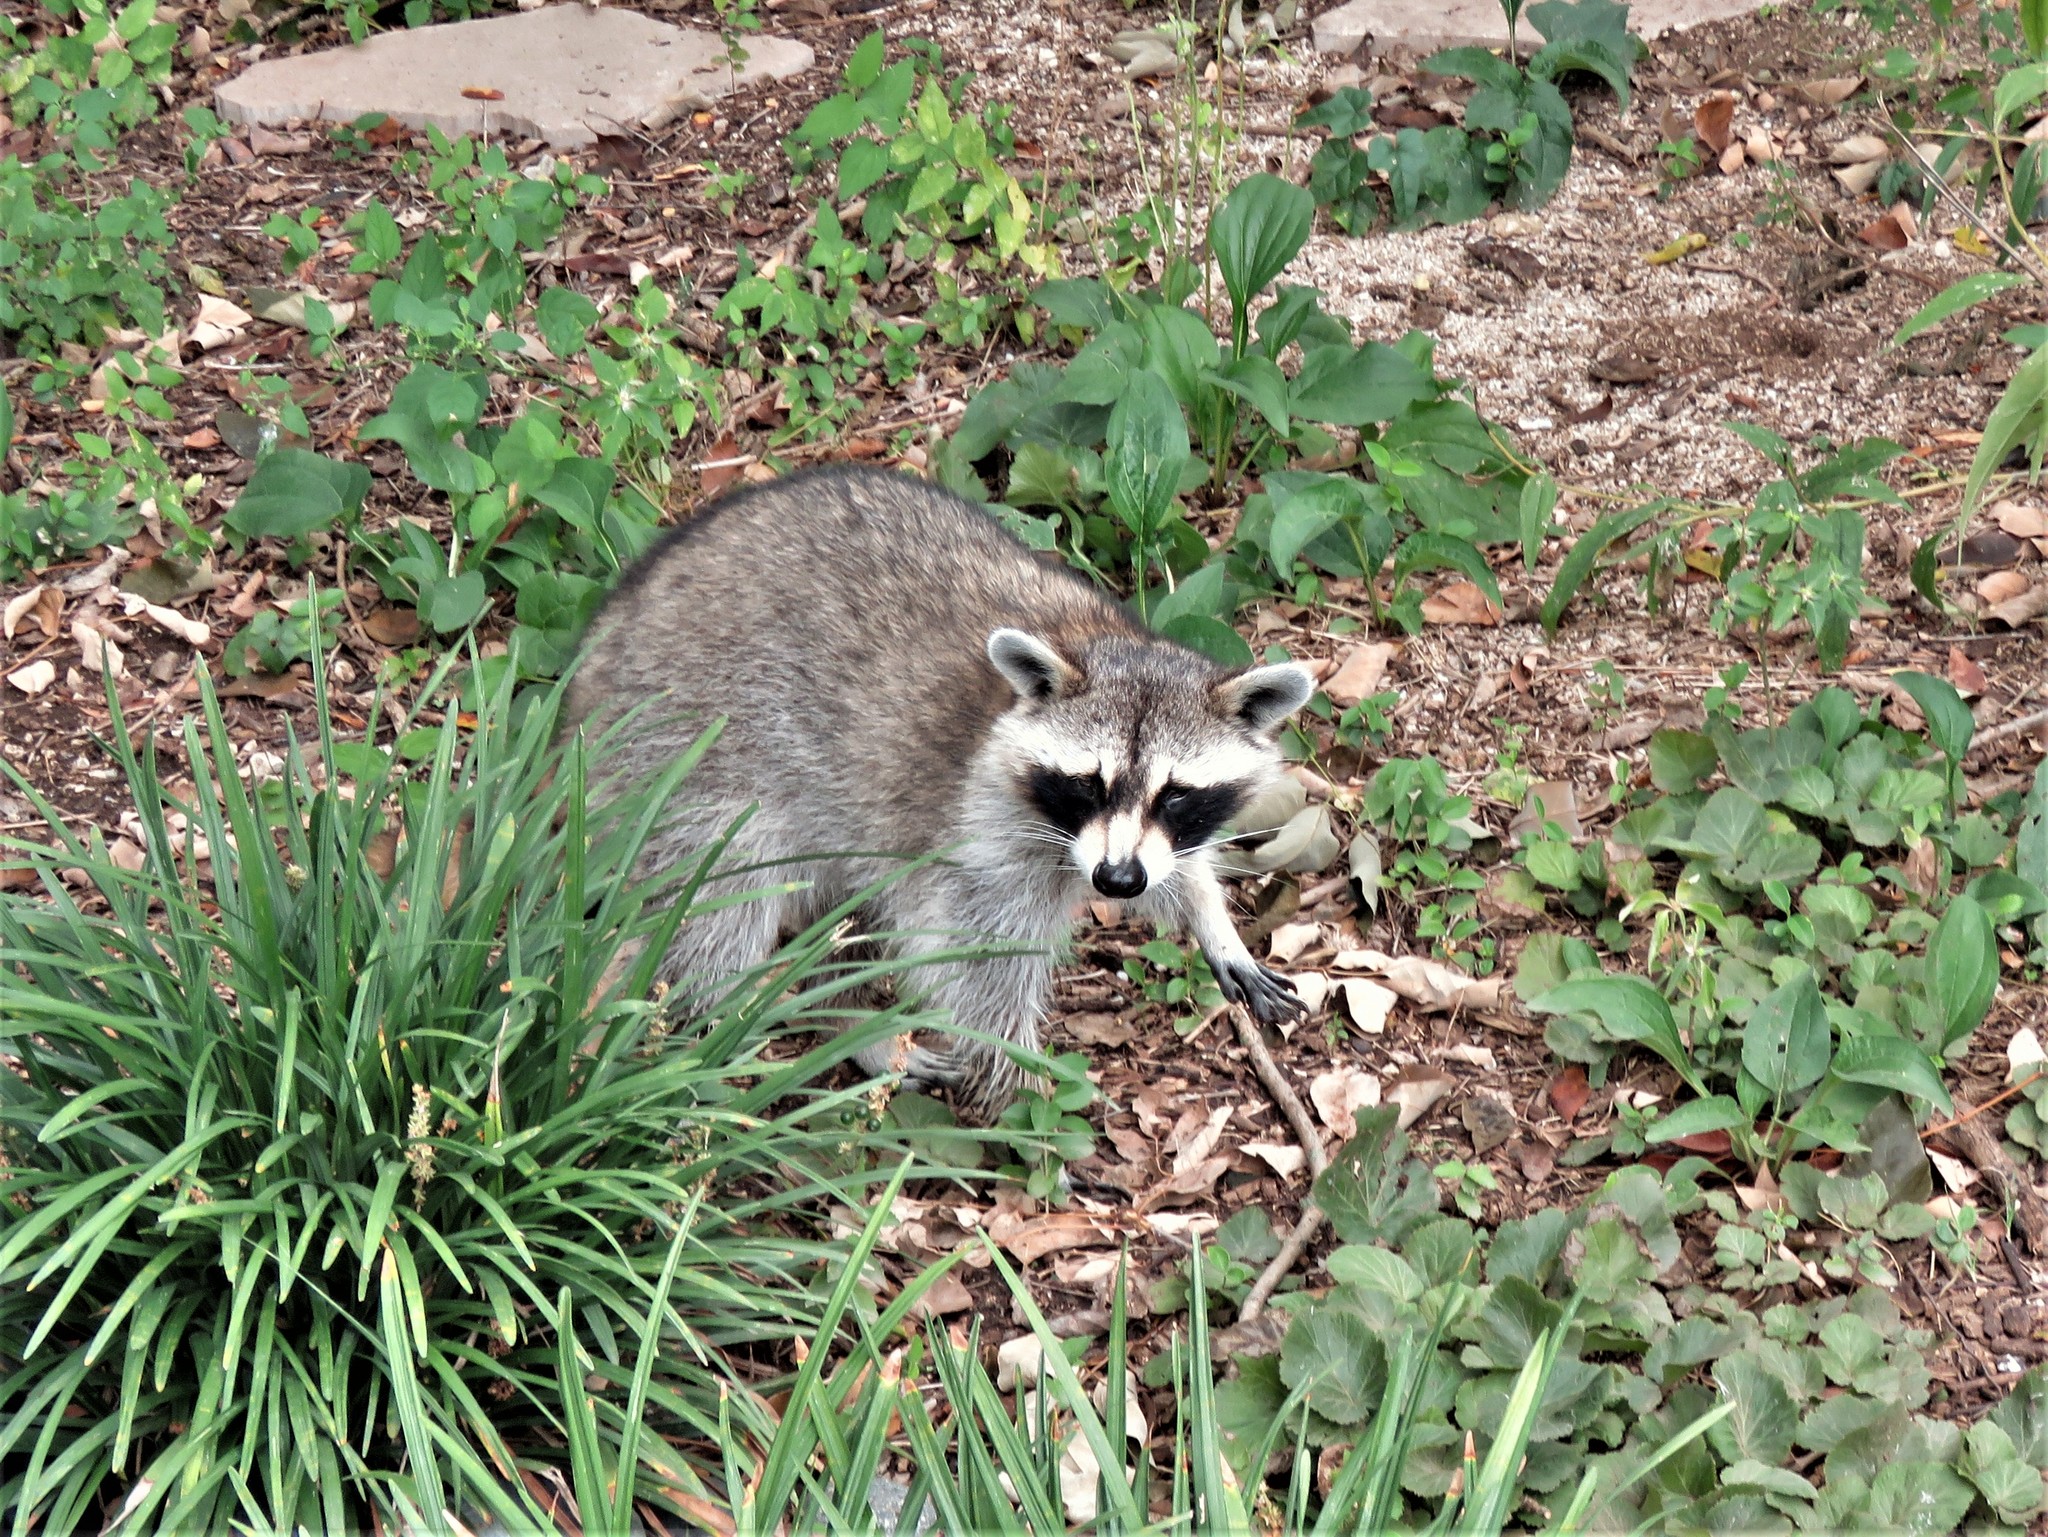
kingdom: Animalia
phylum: Chordata
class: Mammalia
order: Carnivora
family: Procyonidae
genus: Procyon
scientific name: Procyon lotor
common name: Raccoon
